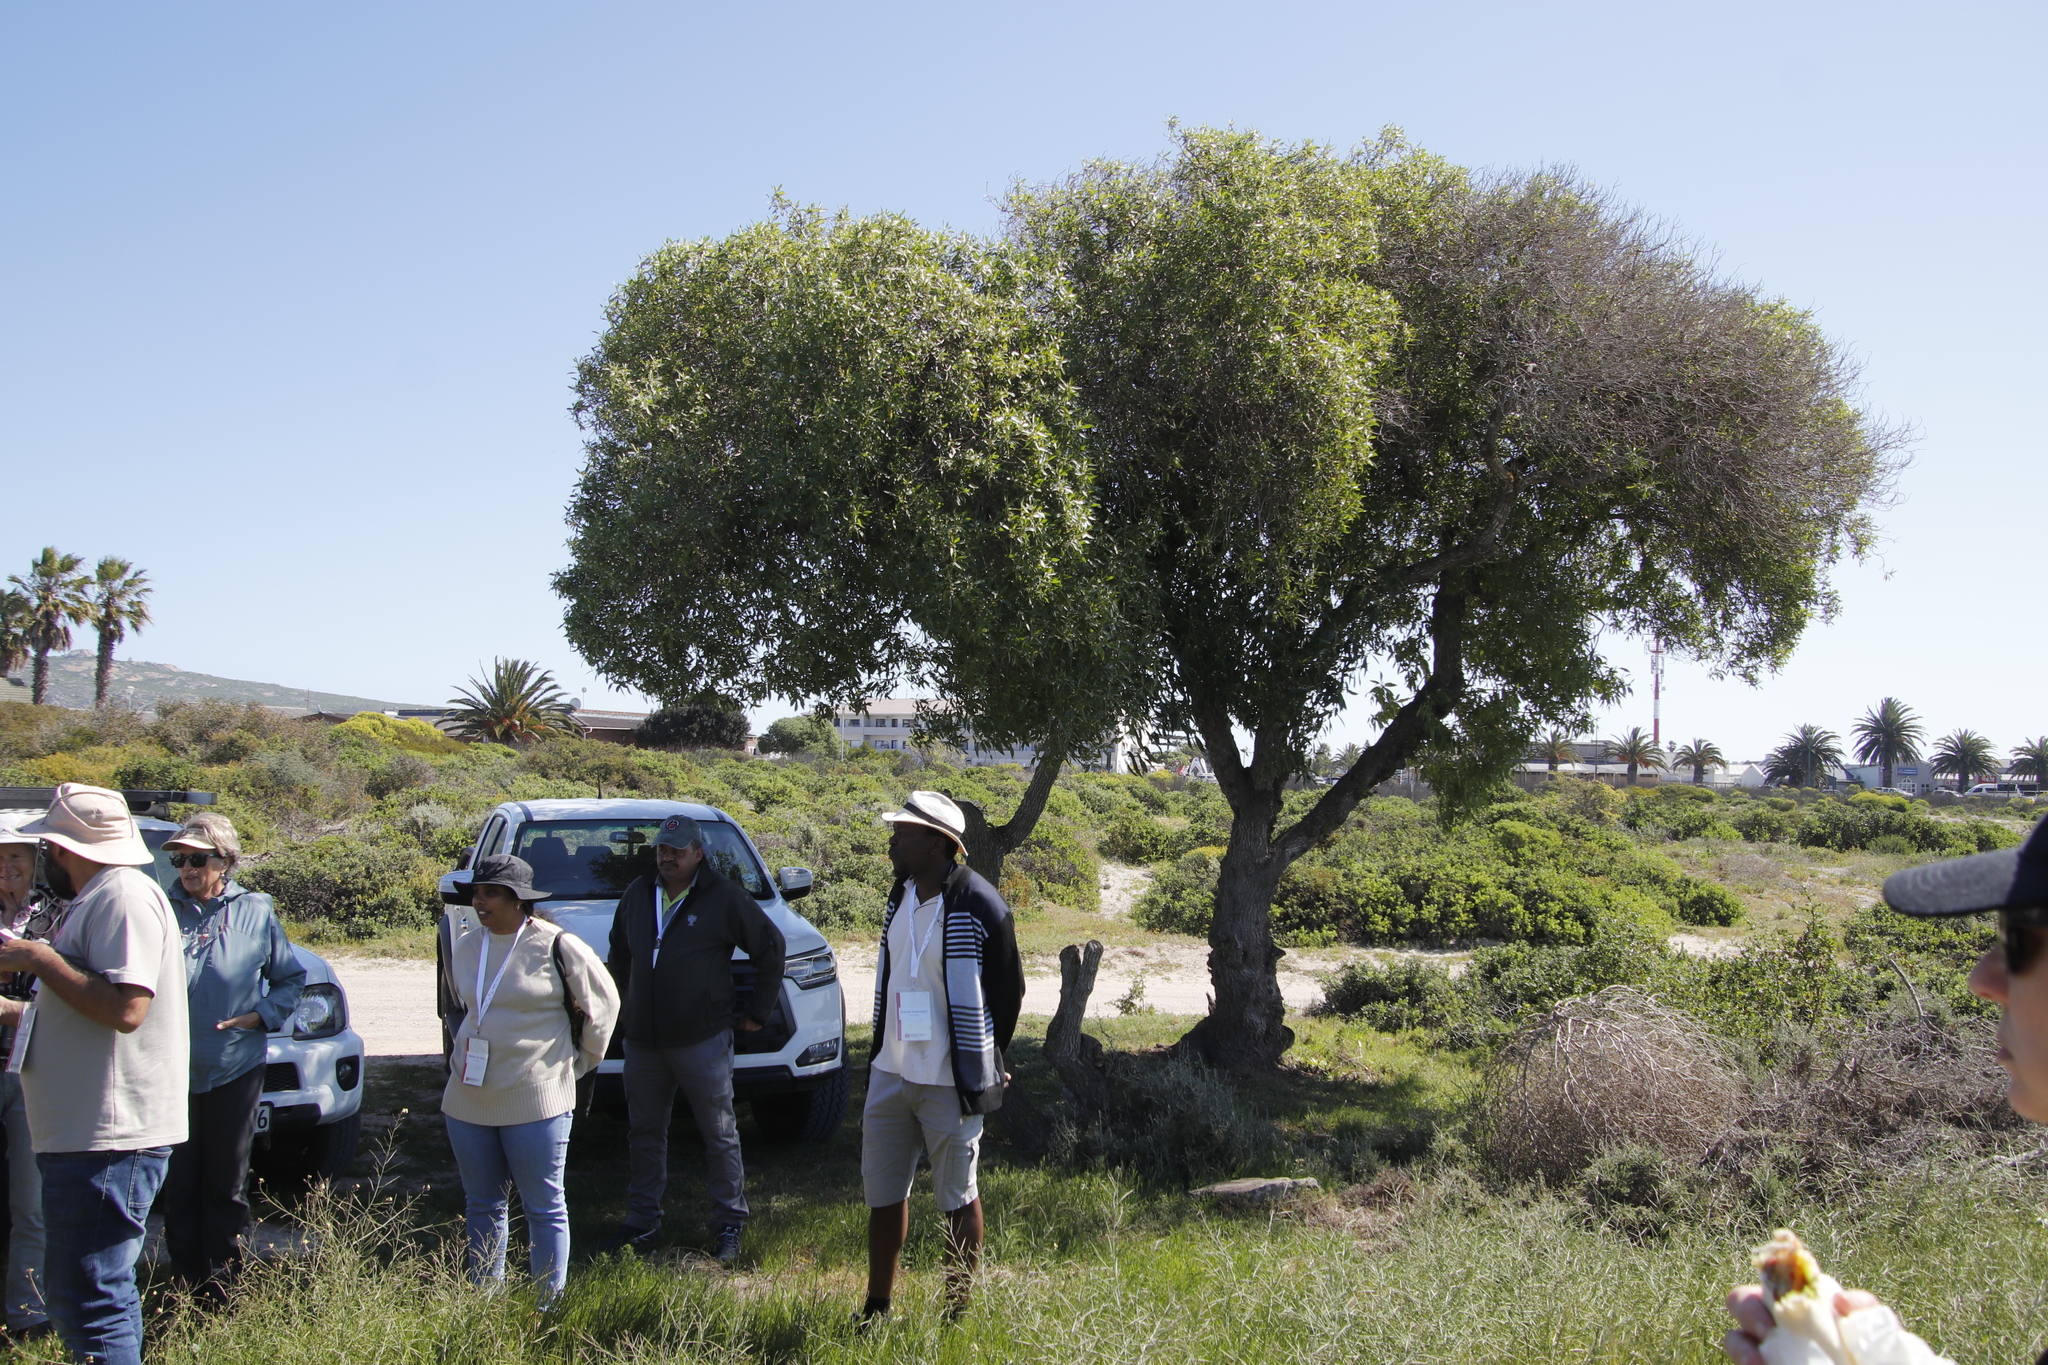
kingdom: Plantae
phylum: Tracheophyta
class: Magnoliopsida
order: Lamiales
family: Scrophulariaceae
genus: Myoporum
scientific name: Myoporum insulare
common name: Common boobialla
